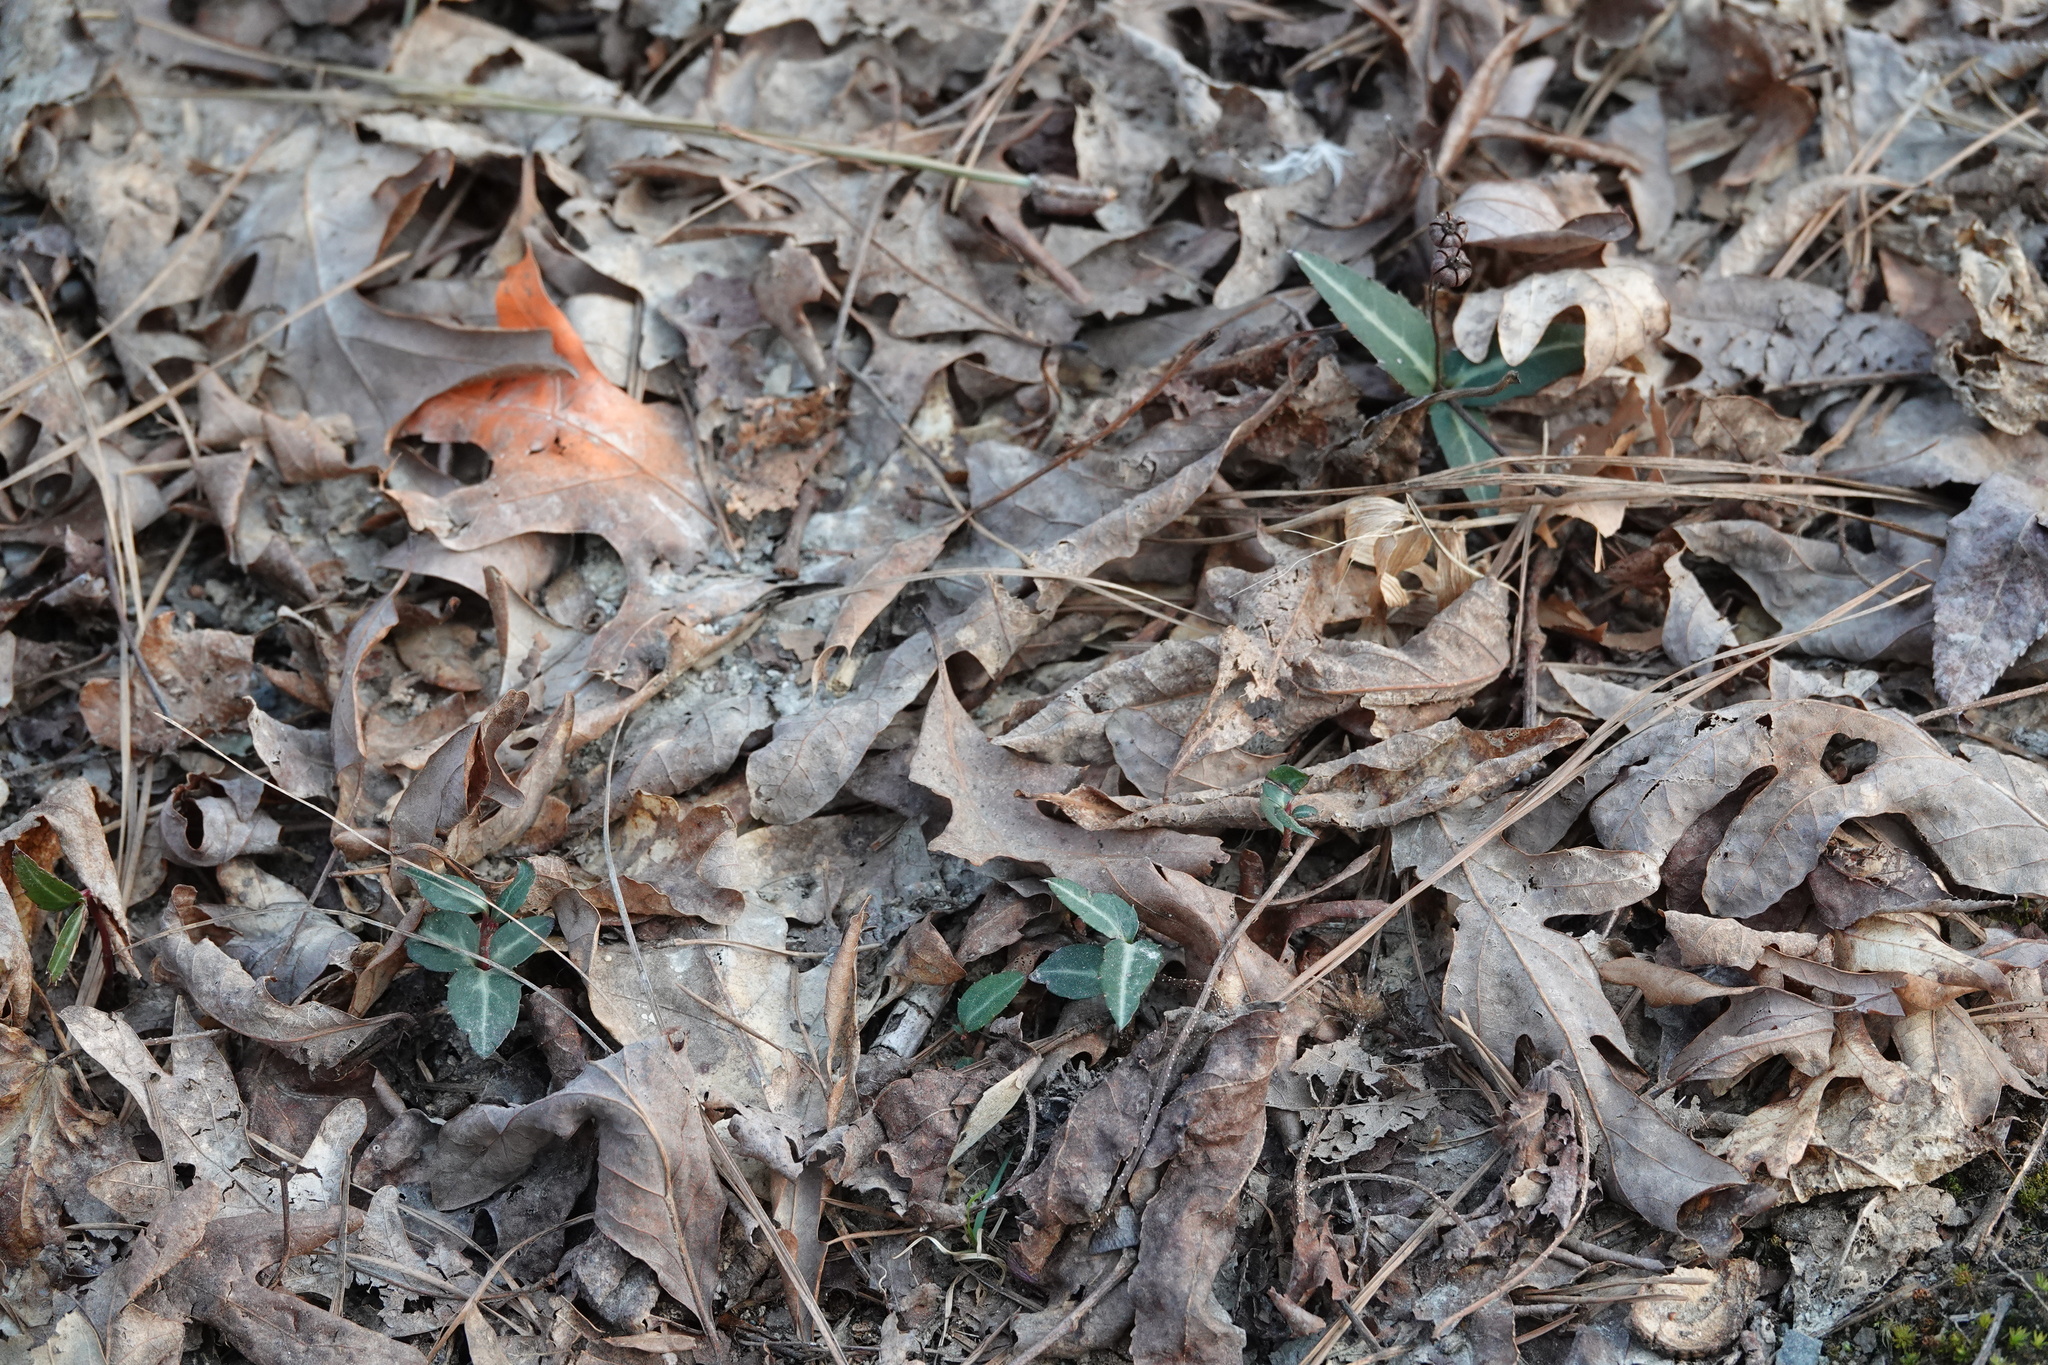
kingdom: Plantae
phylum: Tracheophyta
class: Magnoliopsida
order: Ericales
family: Ericaceae
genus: Chimaphila
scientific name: Chimaphila maculata
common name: Spotted pipsissewa
